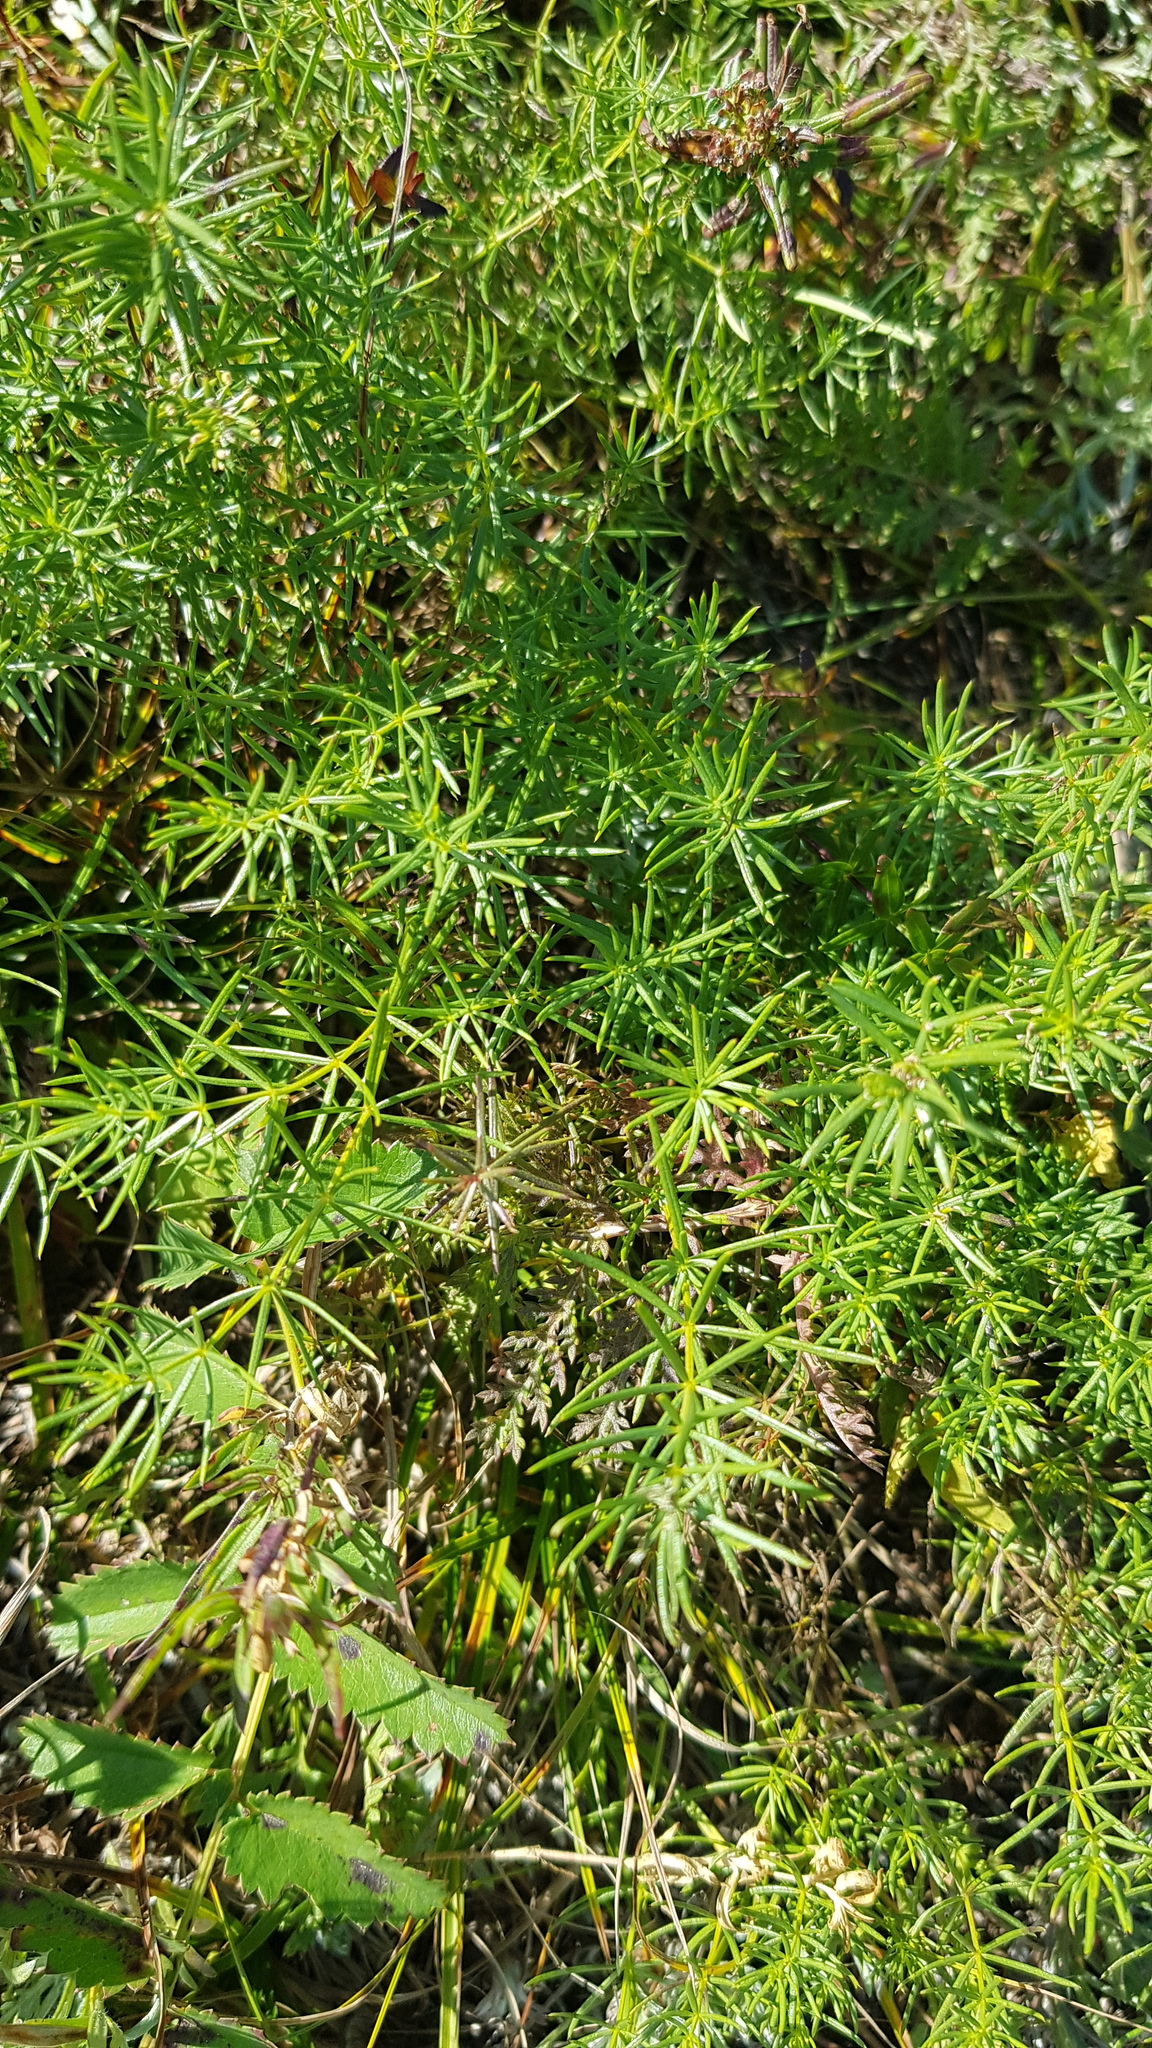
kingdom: Plantae
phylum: Tracheophyta
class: Magnoliopsida
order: Gentianales
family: Rubiaceae
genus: Galium
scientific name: Galium verum
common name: Lady's bedstraw
